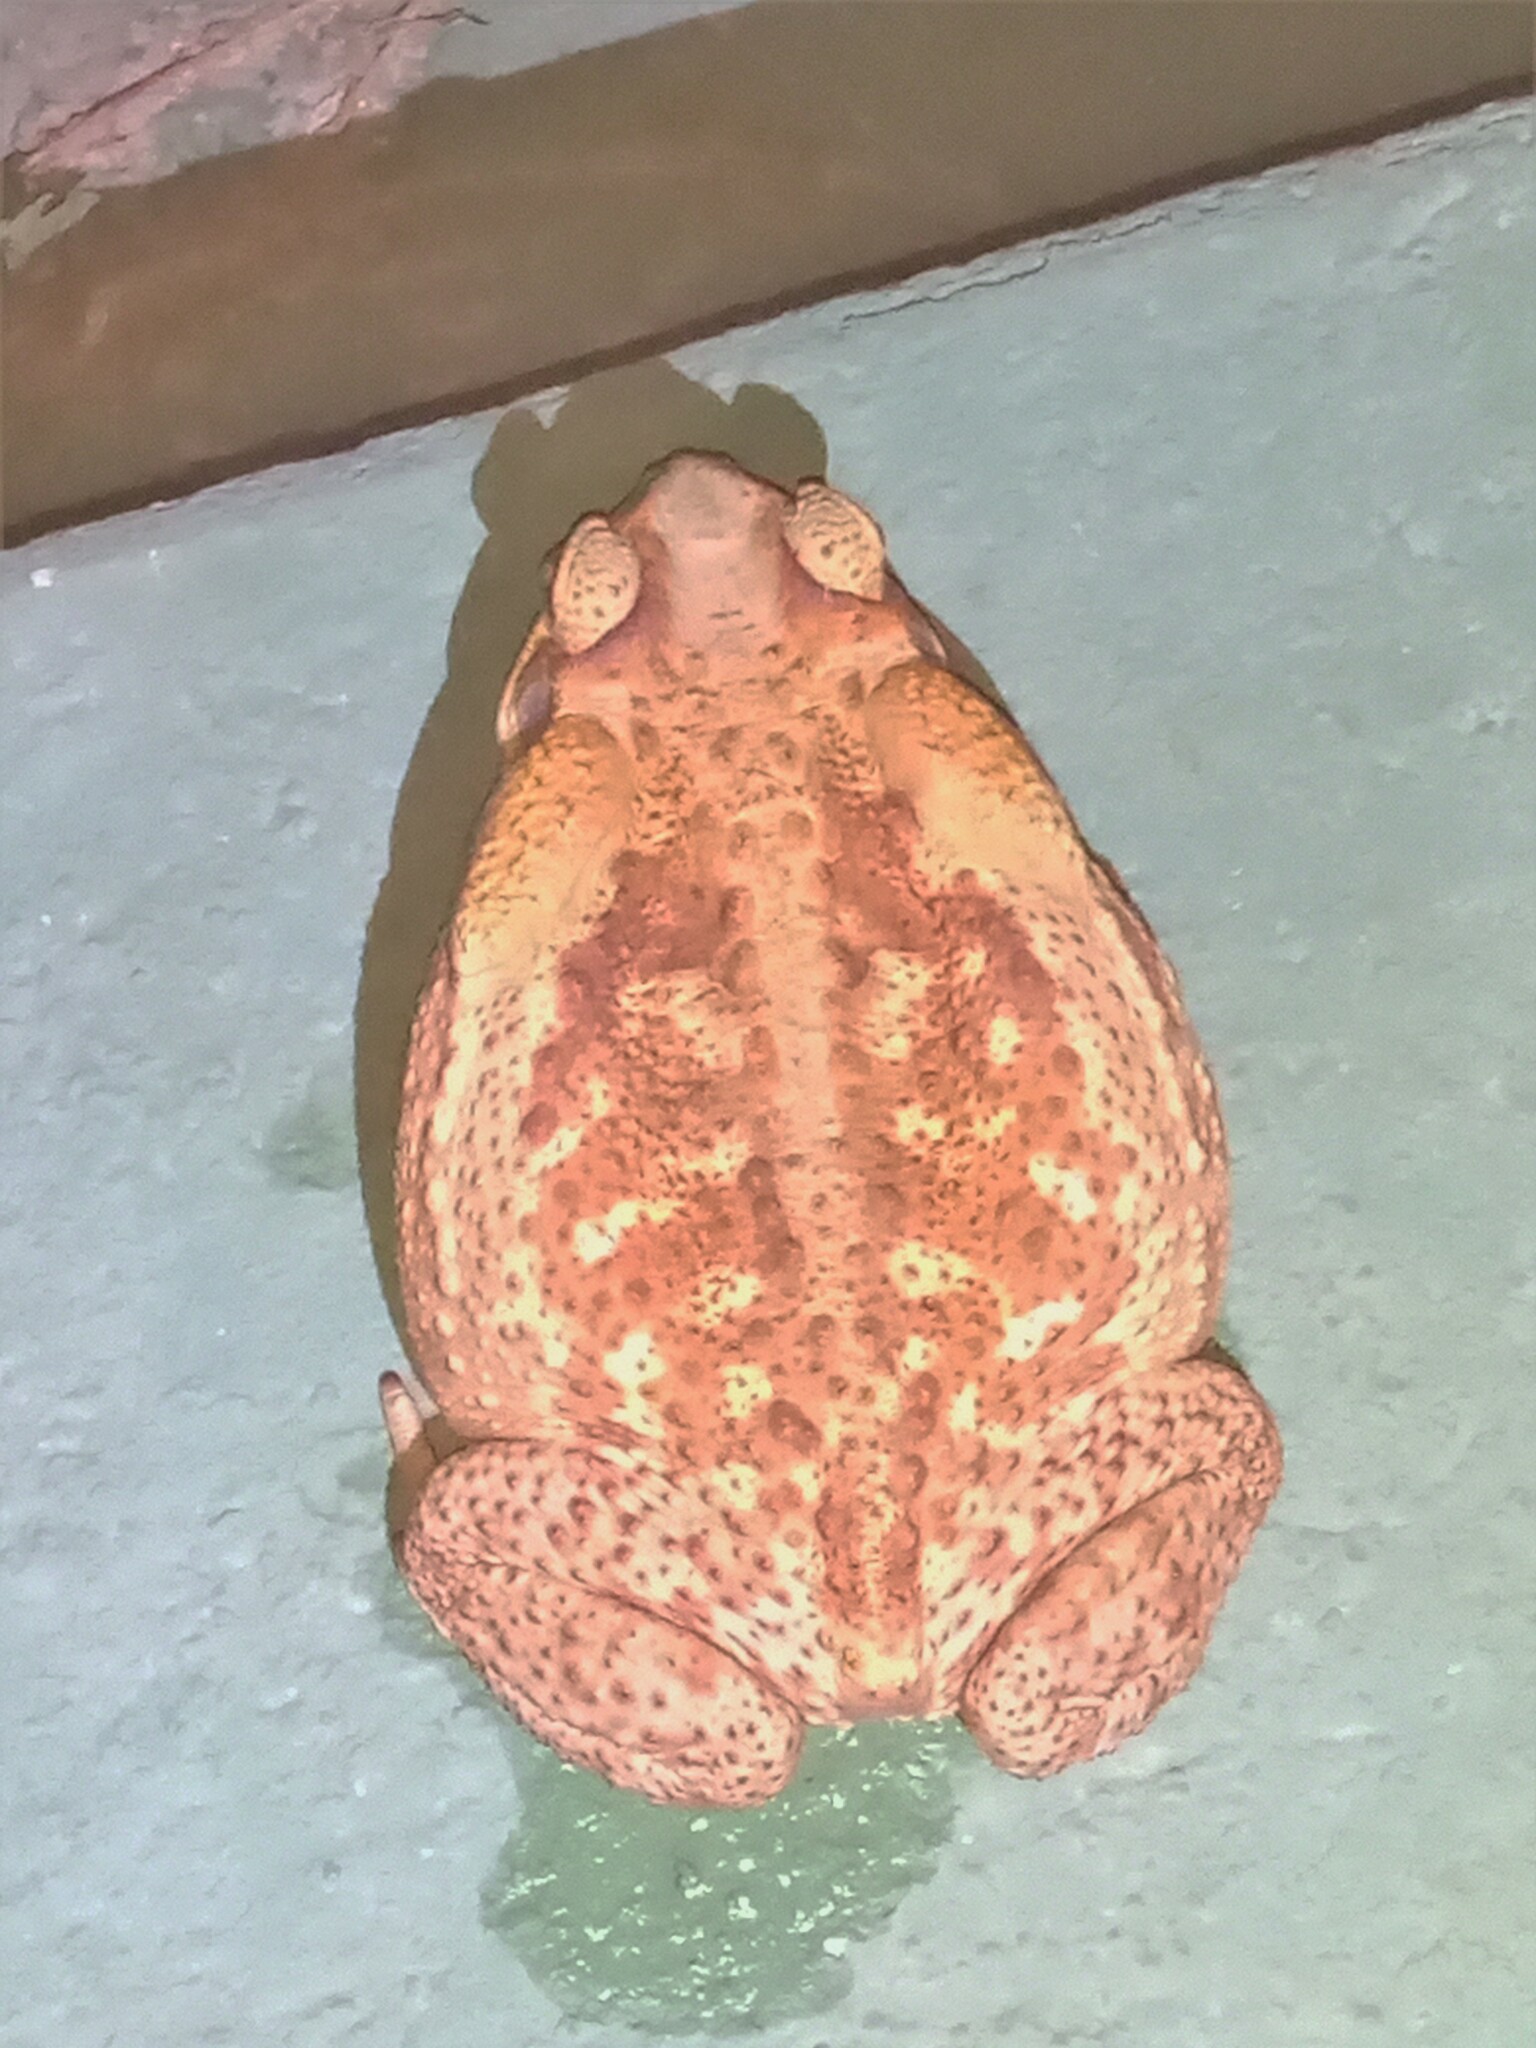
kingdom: Animalia
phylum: Chordata
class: Amphibia
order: Anura
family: Bufonidae
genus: Rhinella
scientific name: Rhinella diptycha
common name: Cope's toad
